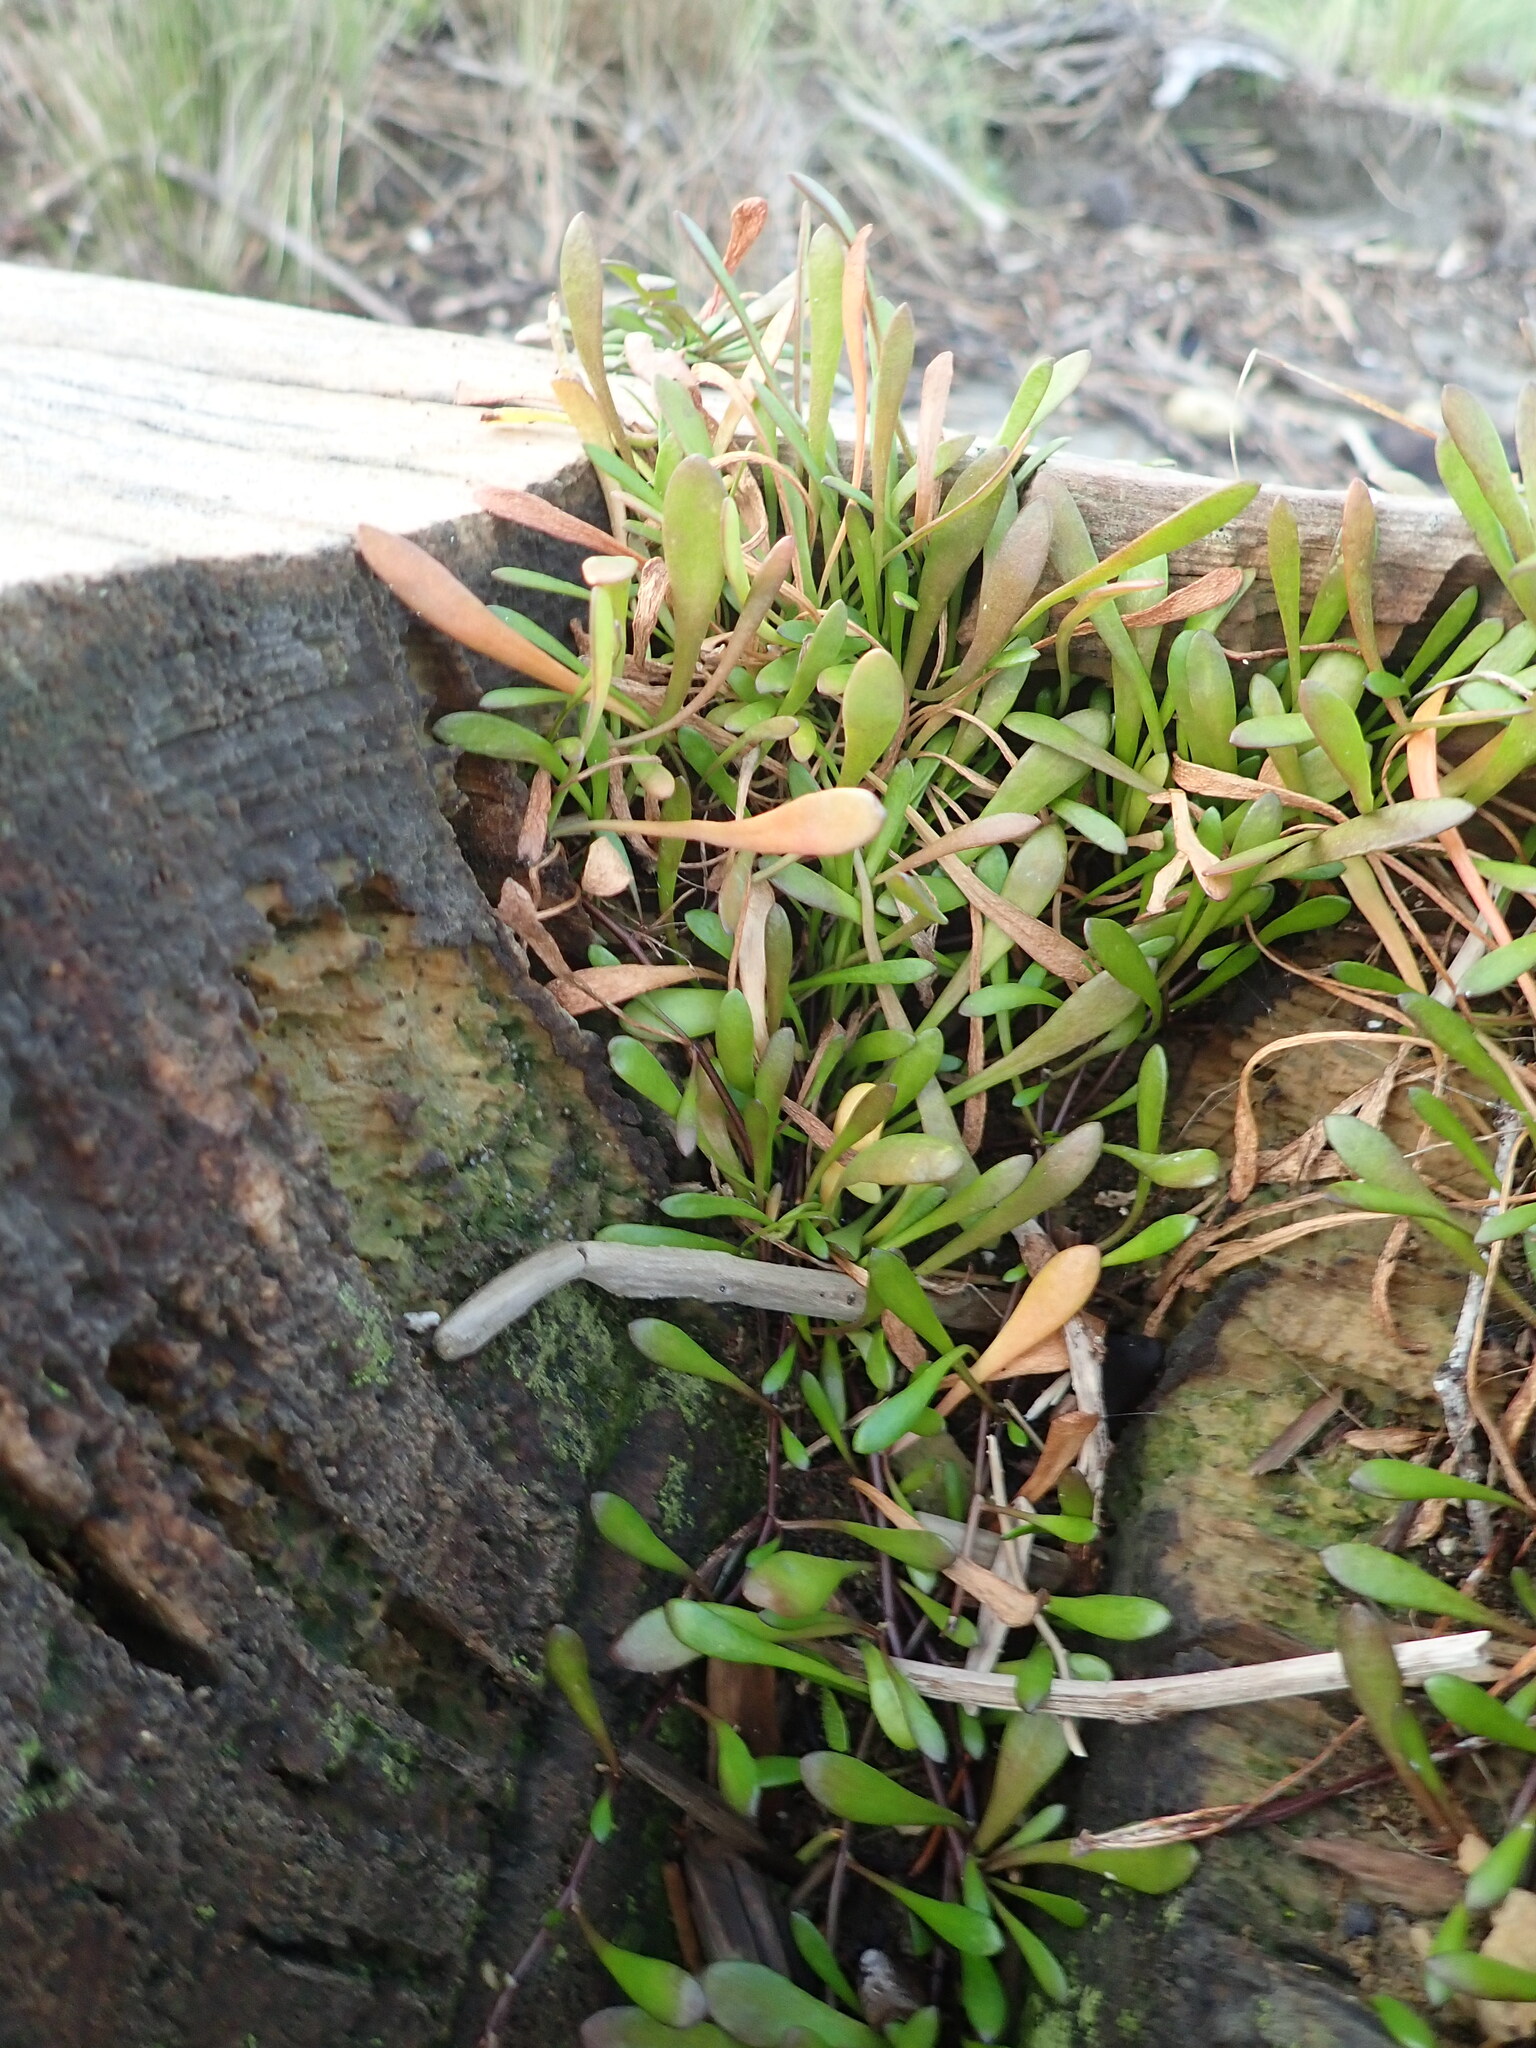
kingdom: Plantae
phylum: Tracheophyta
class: Magnoliopsida
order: Asterales
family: Goodeniaceae
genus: Goodenia
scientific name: Goodenia radicans
